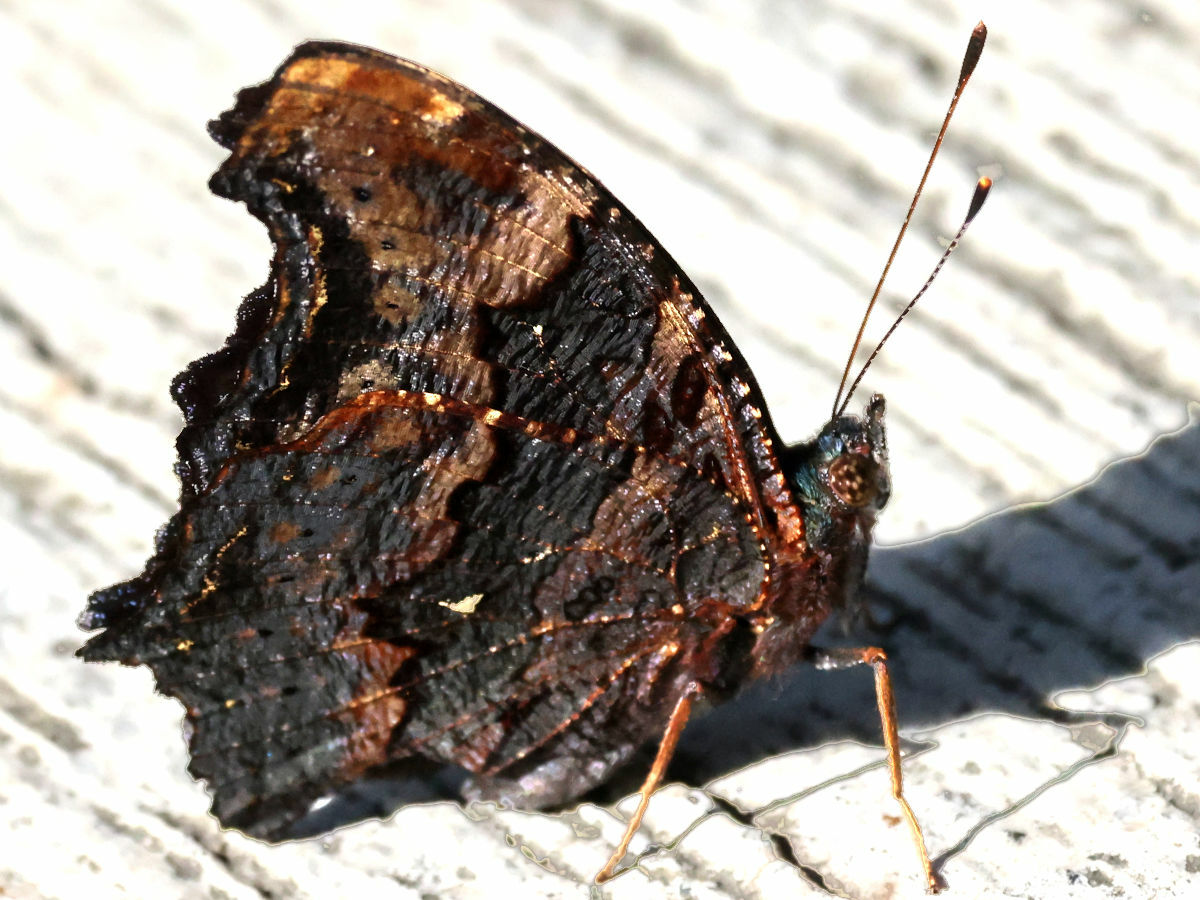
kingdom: Animalia
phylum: Arthropoda
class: Insecta
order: Lepidoptera
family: Nymphalidae
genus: Vanessa
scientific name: Vanessa Kaniska canace
